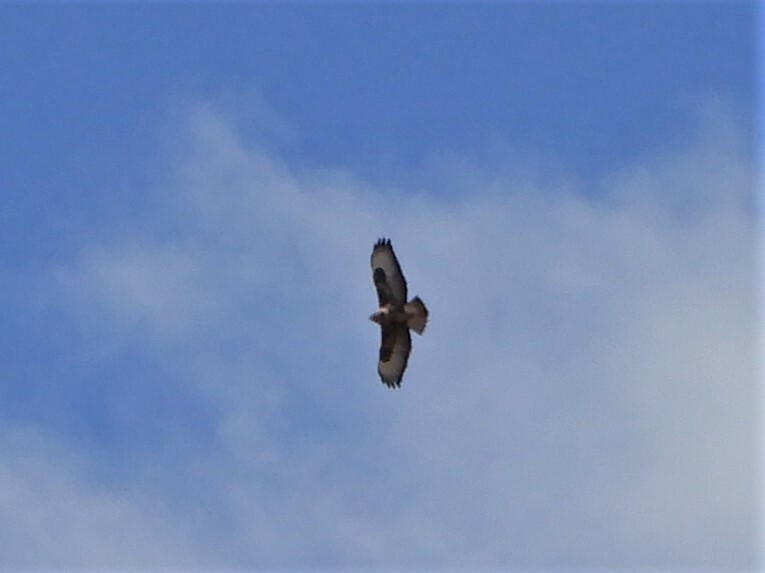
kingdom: Animalia
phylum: Chordata
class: Aves
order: Accipitriformes
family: Accipitridae
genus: Buteo
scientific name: Buteo buteo
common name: Common buzzard
